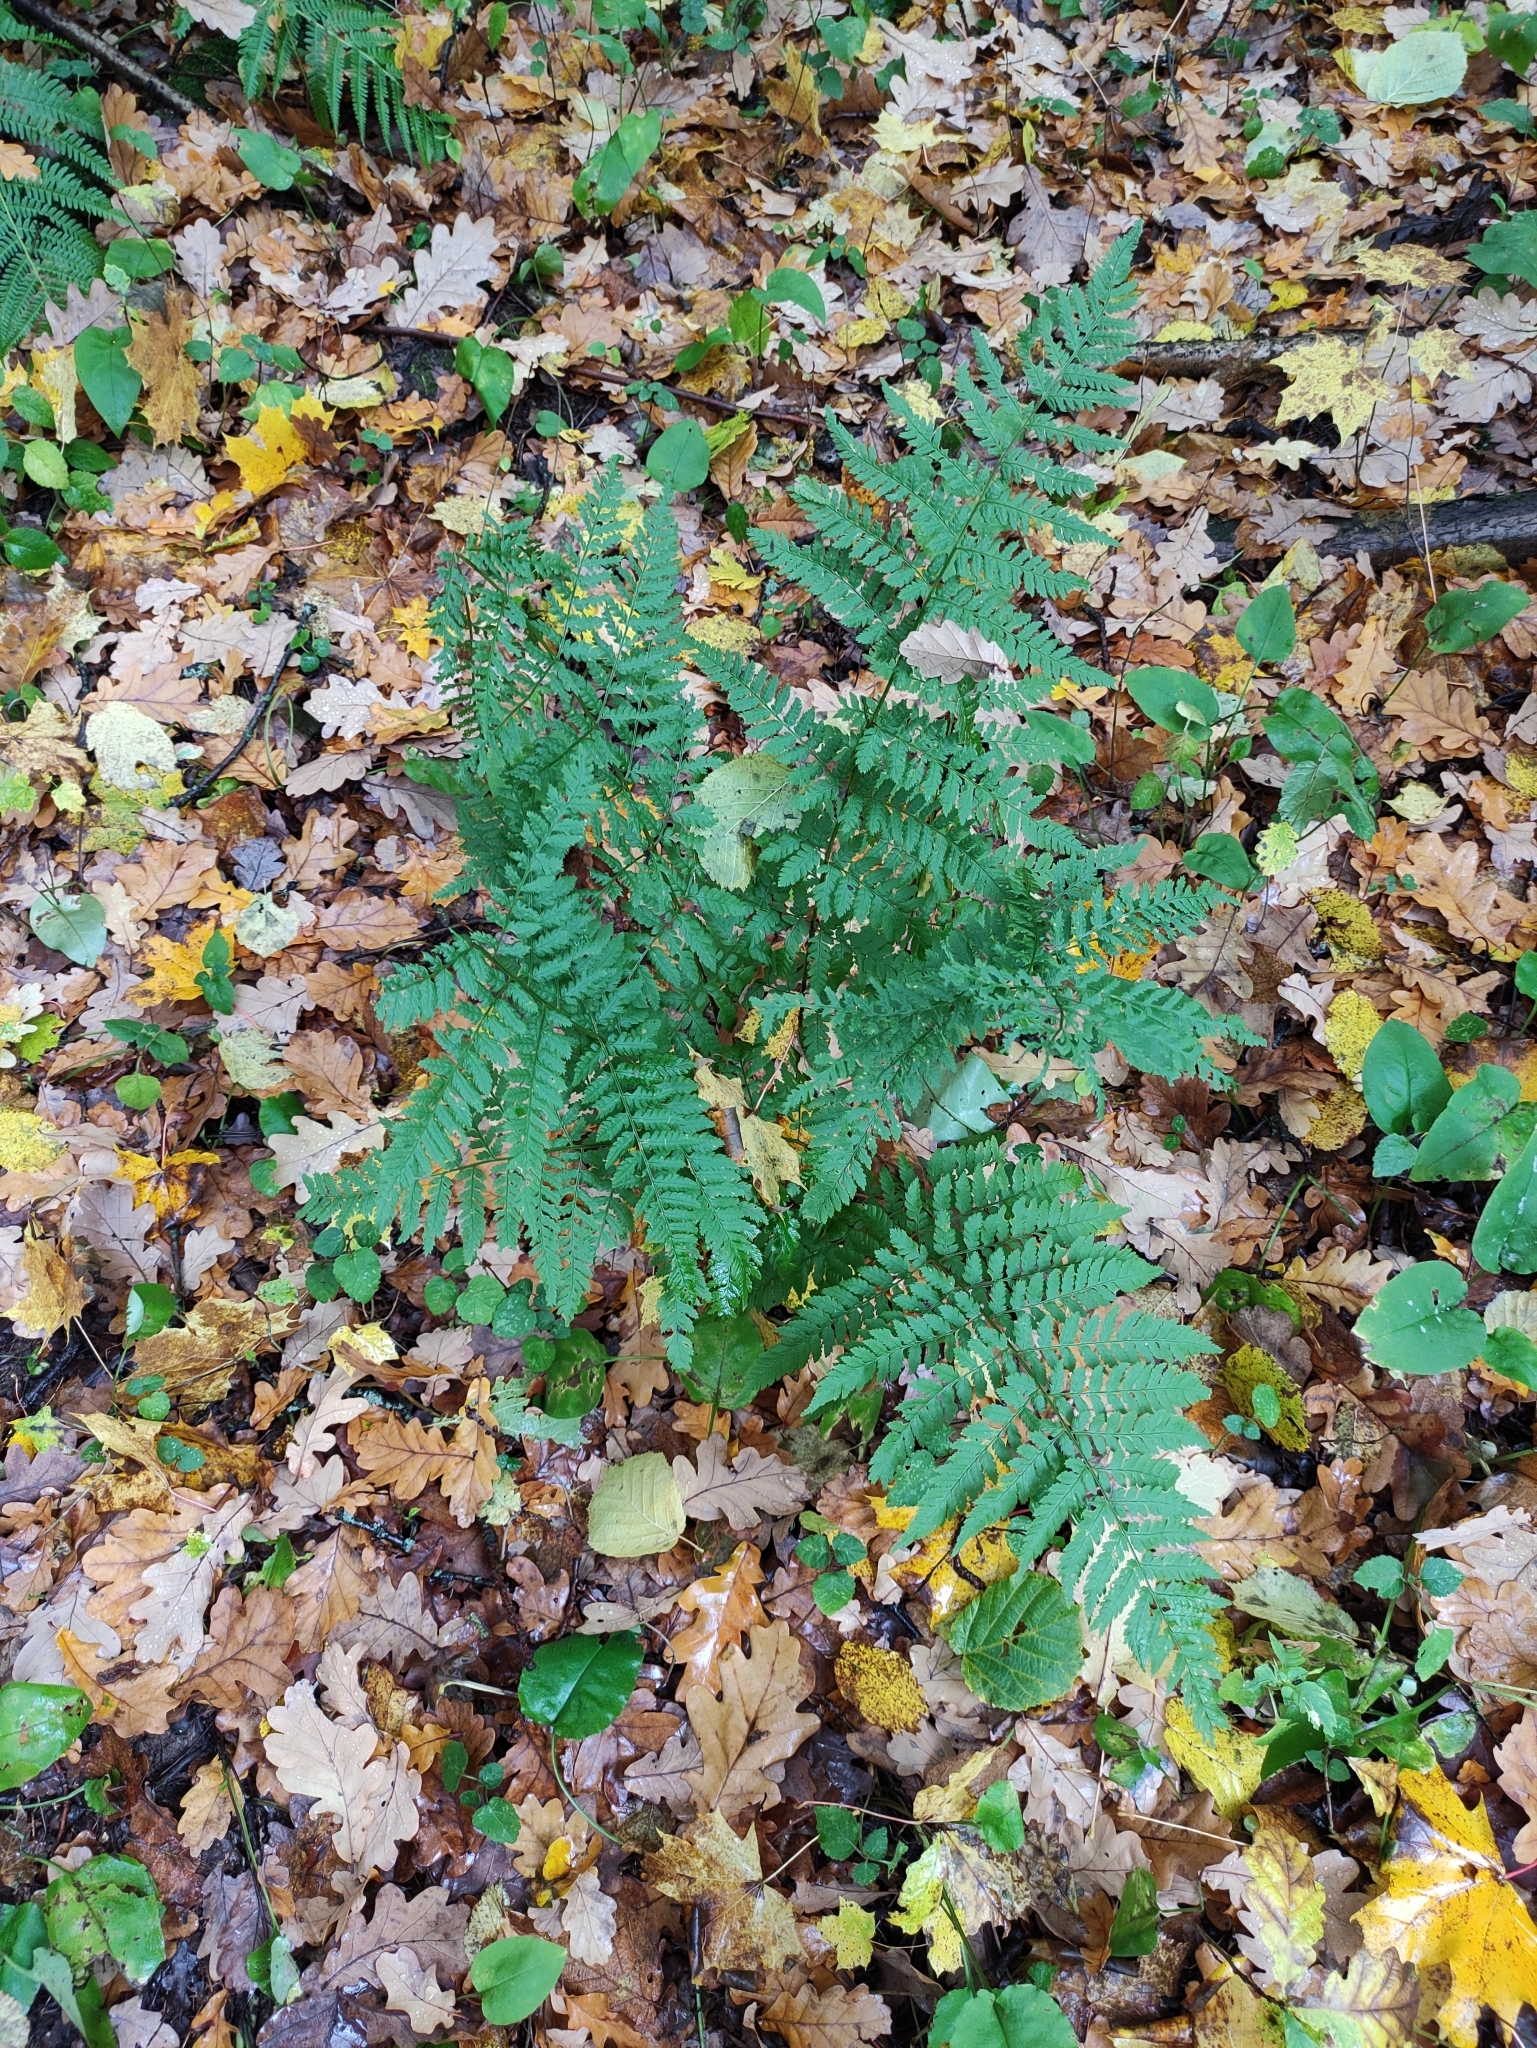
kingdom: Plantae
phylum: Tracheophyta
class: Polypodiopsida
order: Polypodiales
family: Dryopteridaceae
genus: Dryopteris
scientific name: Dryopteris carthusiana
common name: Narrow buckler-fern
